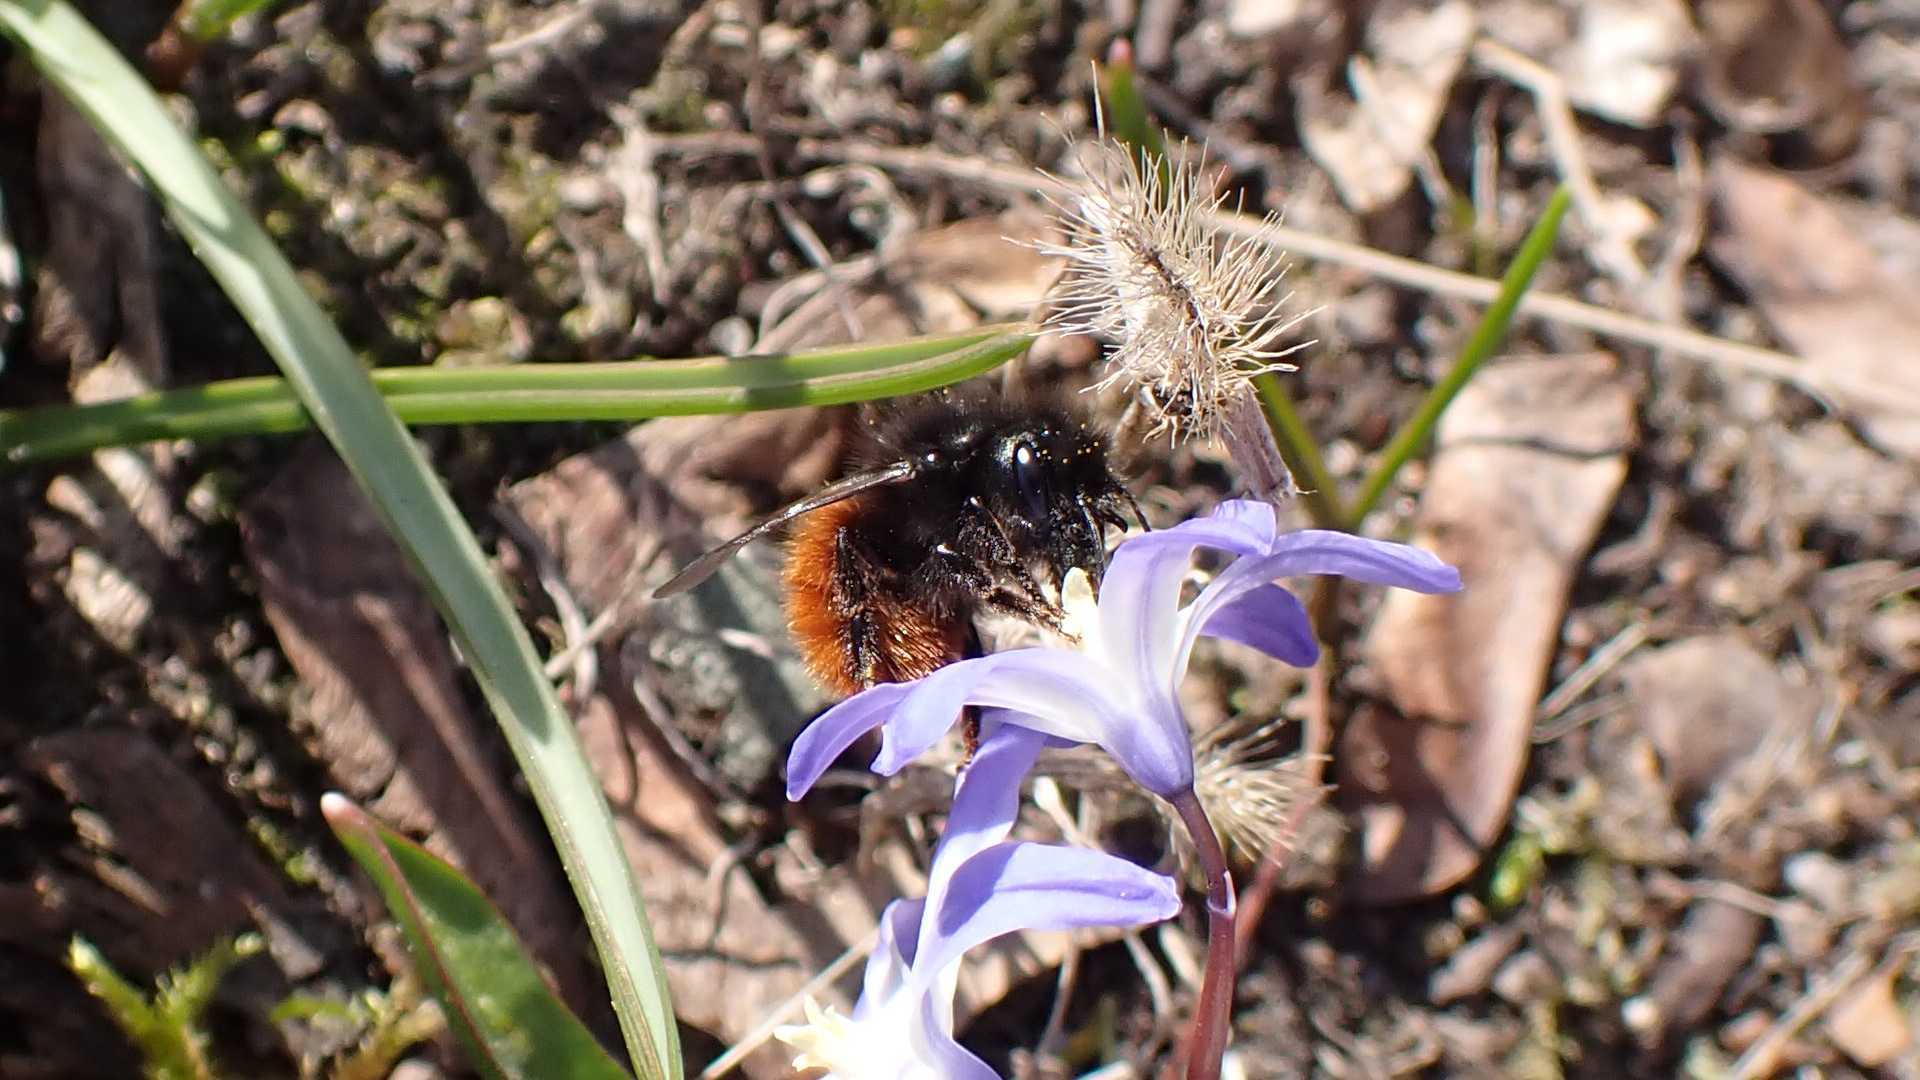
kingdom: Animalia
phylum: Arthropoda
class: Insecta
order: Hymenoptera
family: Megachilidae
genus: Osmia
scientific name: Osmia cornuta
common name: Mason bee
